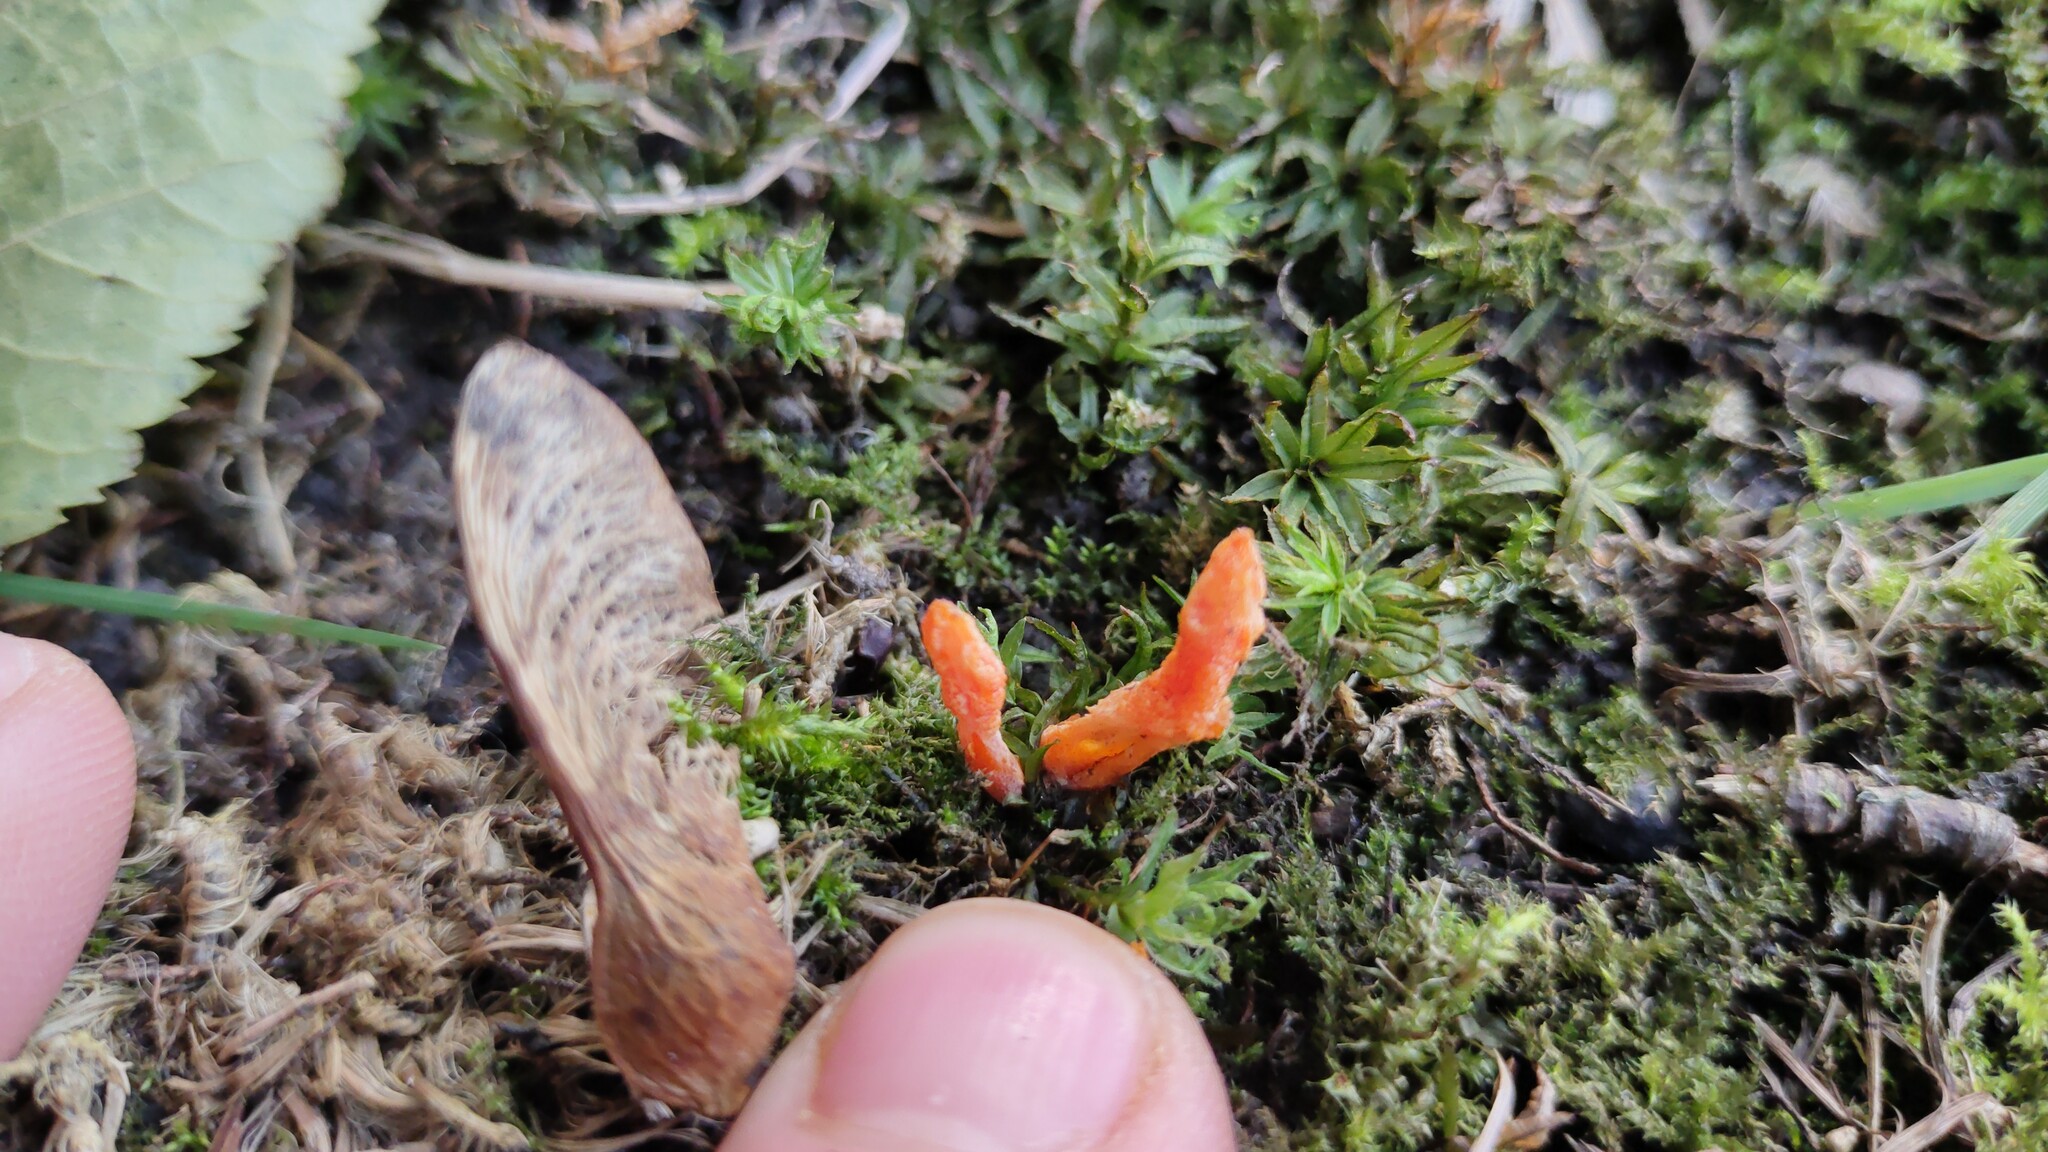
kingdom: Fungi
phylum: Ascomycota
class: Sordariomycetes
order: Hypocreales
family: Cordycipitaceae
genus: Cordyceps
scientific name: Cordyceps militaris
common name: Scarlet caterpillar fungus
